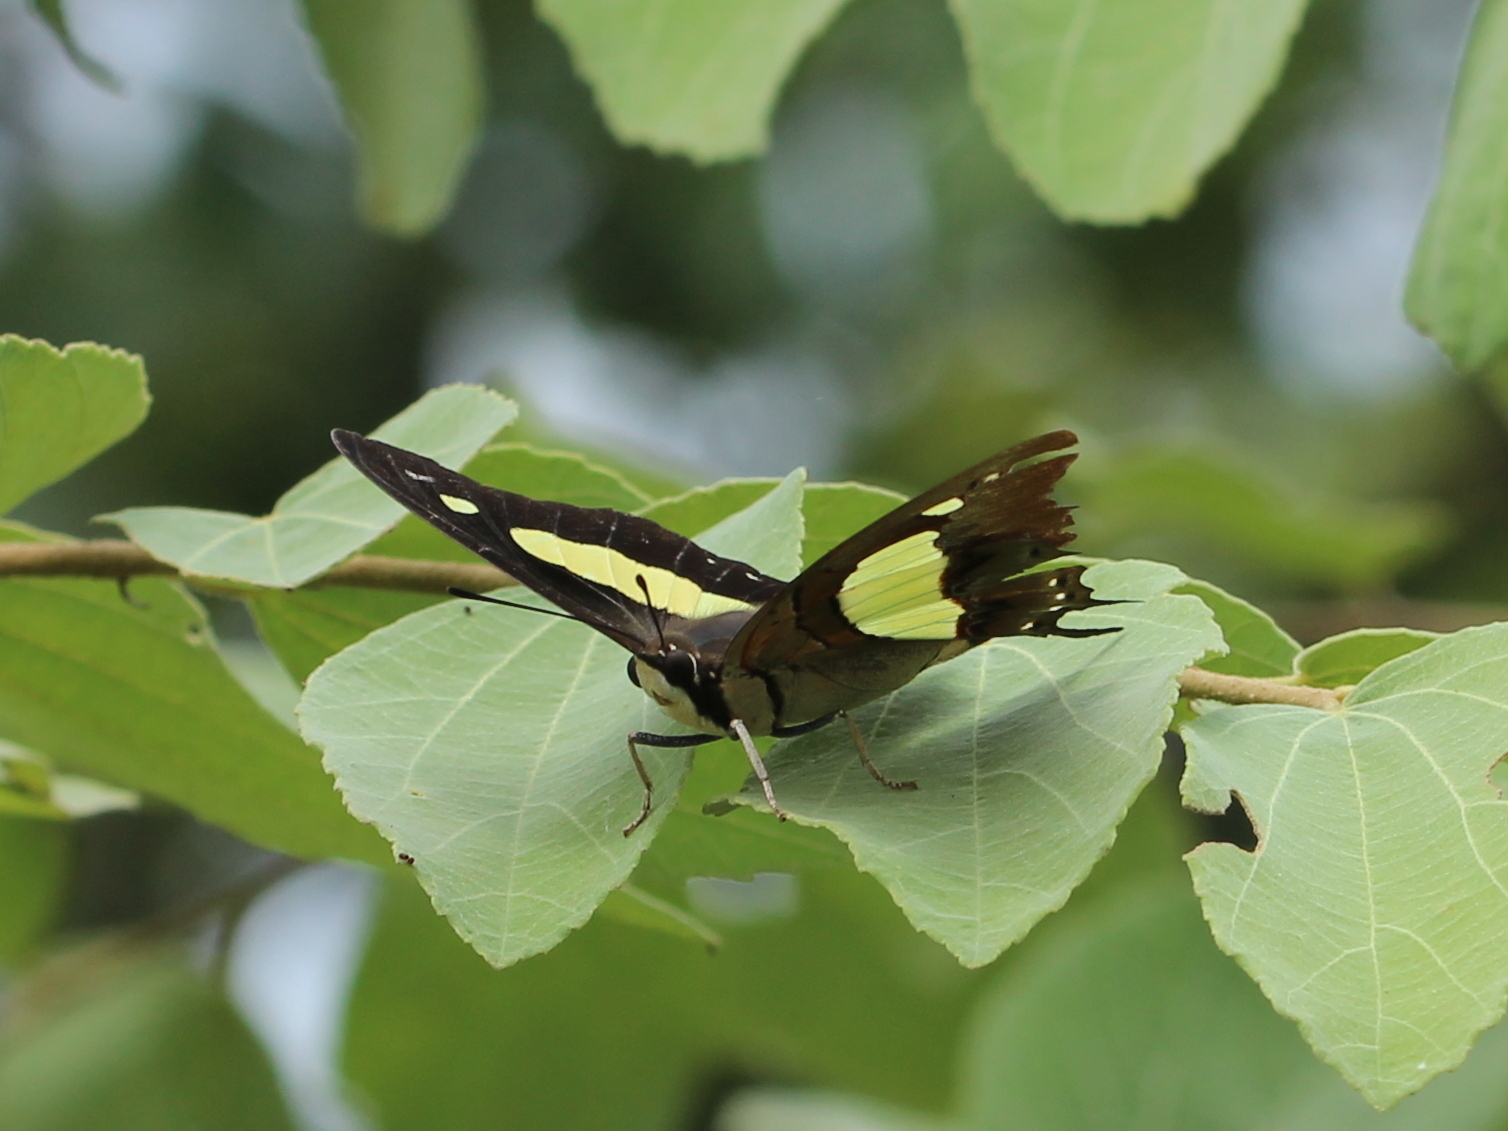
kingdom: Animalia
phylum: Arthropoda
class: Insecta
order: Lepidoptera
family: Nymphalidae
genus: Polyura
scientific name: Polyura
